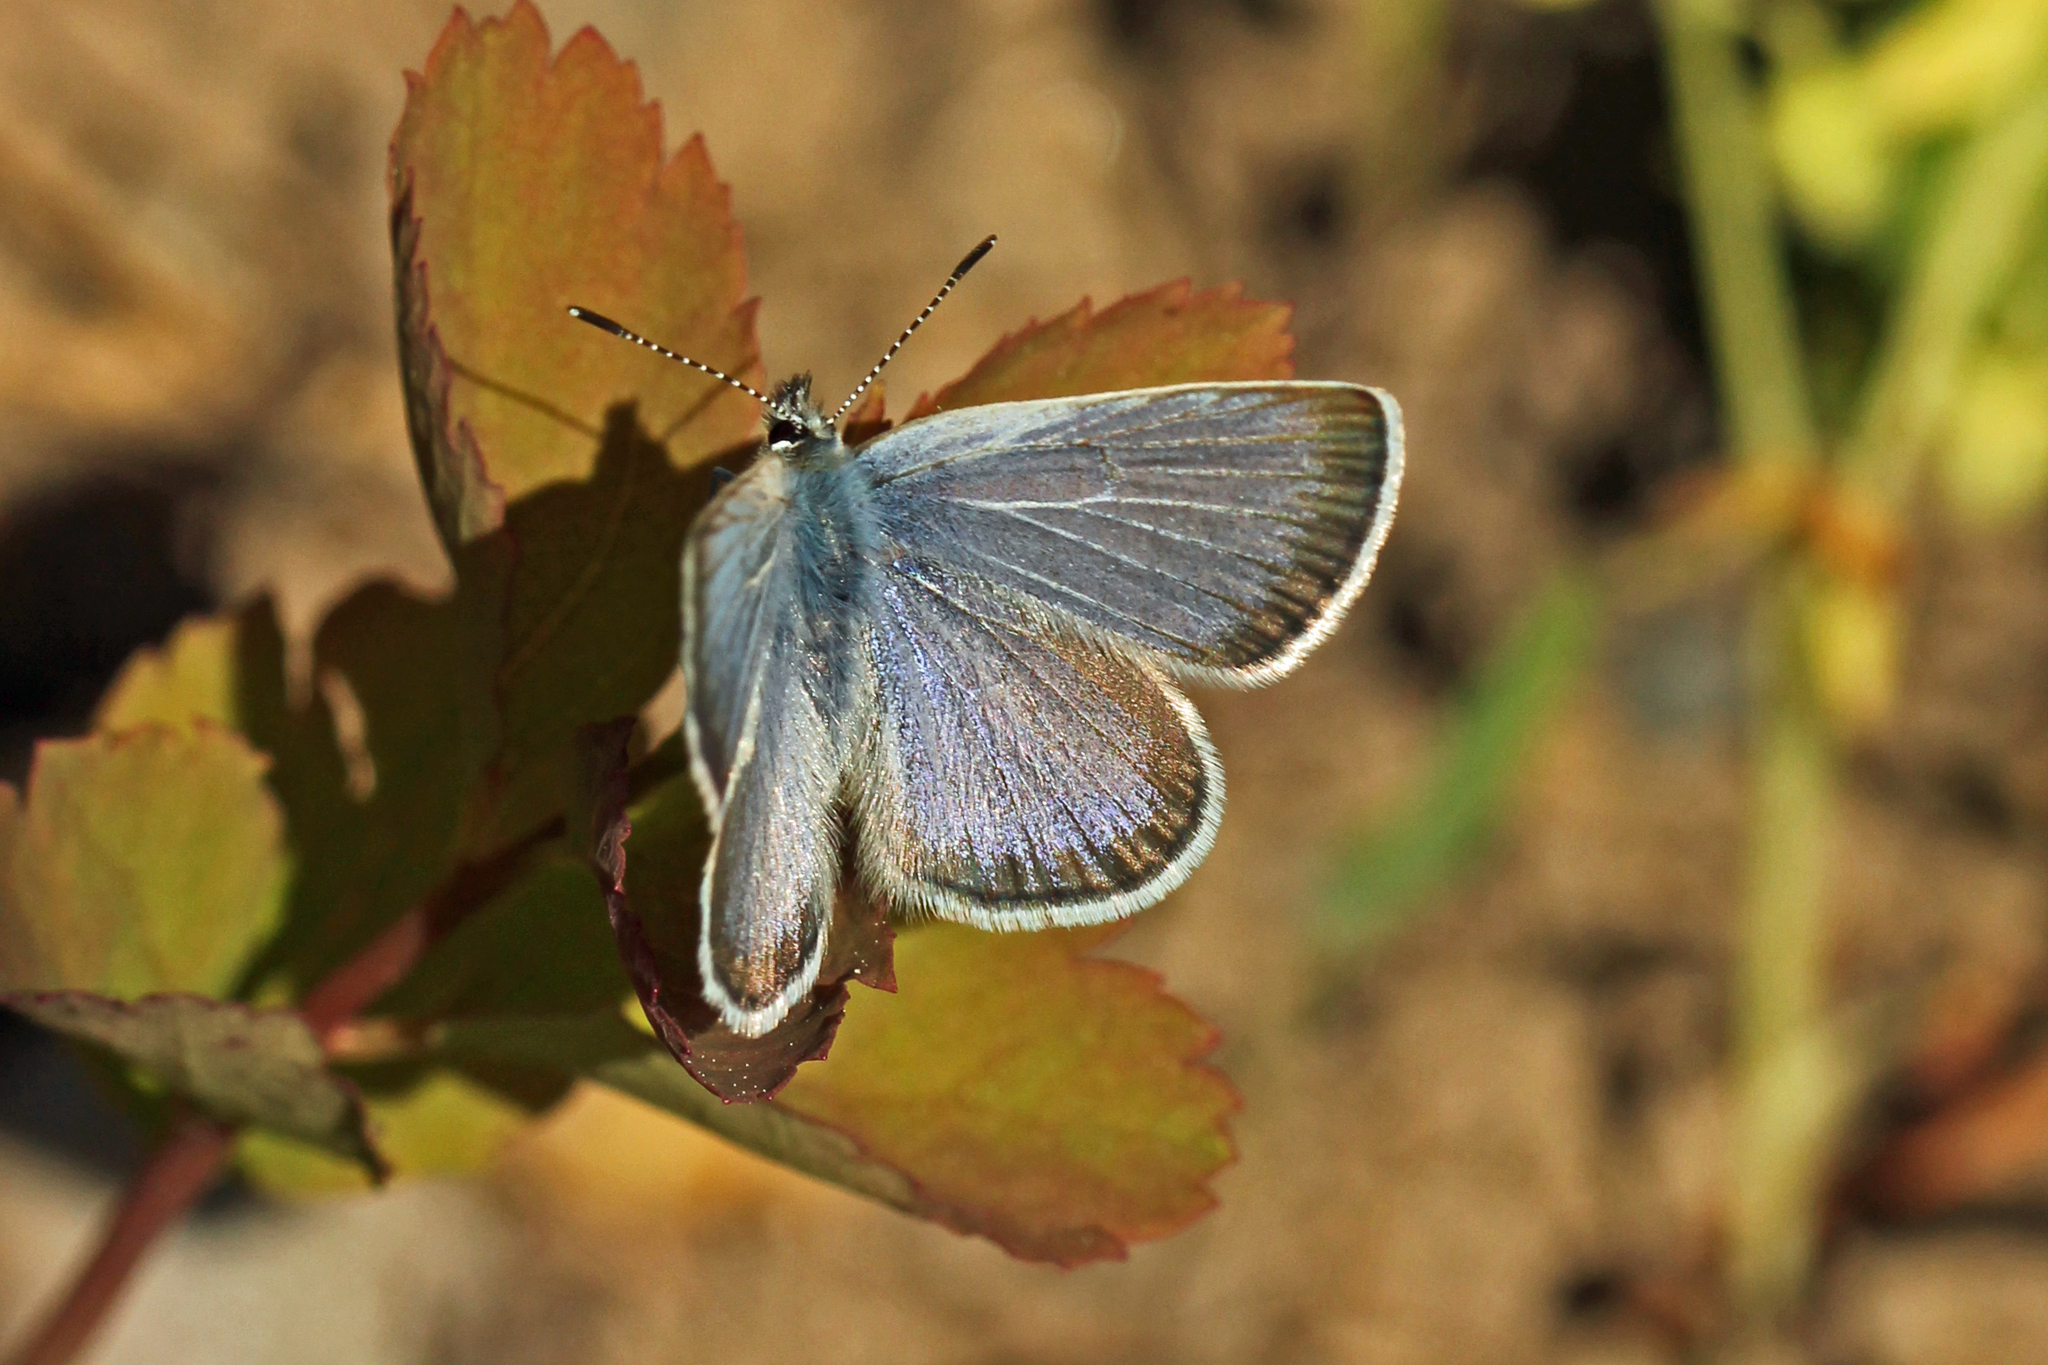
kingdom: Animalia
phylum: Arthropoda
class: Insecta
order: Lepidoptera
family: Lycaenidae
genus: Icaricia
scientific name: Icaricia icarioides
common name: Boisduval's blue
